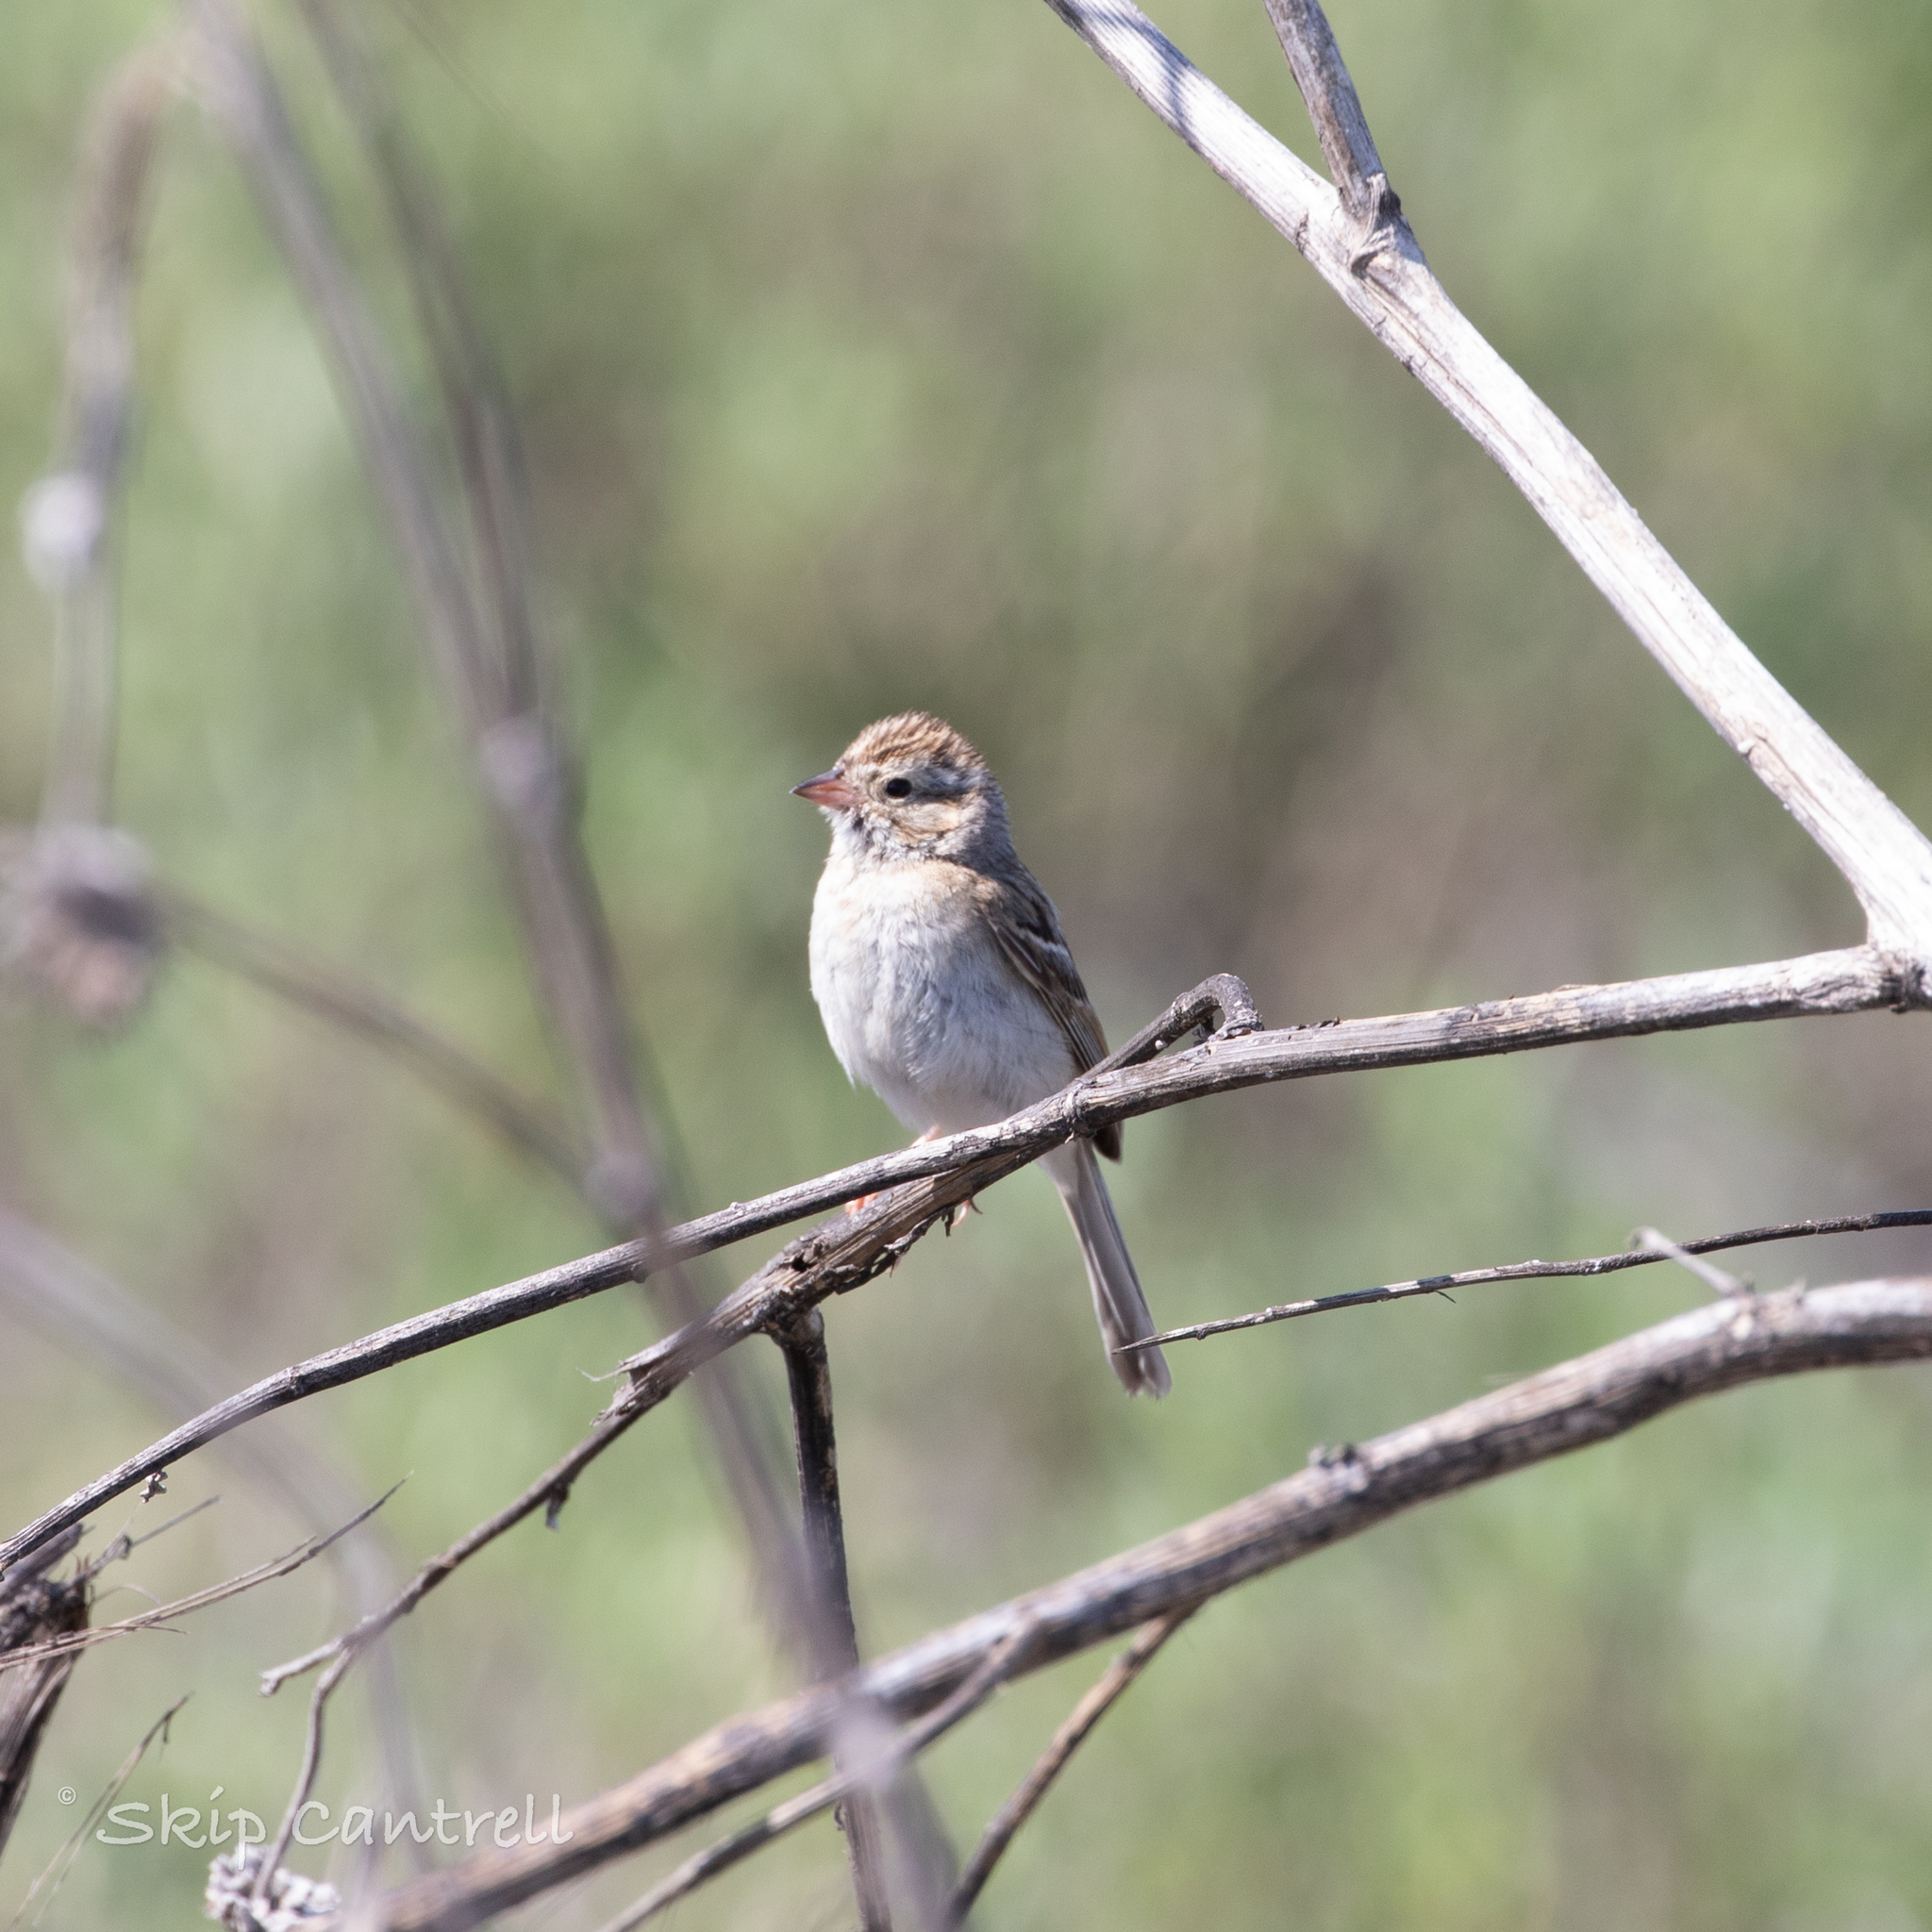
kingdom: Animalia
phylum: Chordata
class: Aves
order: Passeriformes
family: Passerellidae
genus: Spizella
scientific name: Spizella pallida
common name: Clay-colored sparrow
